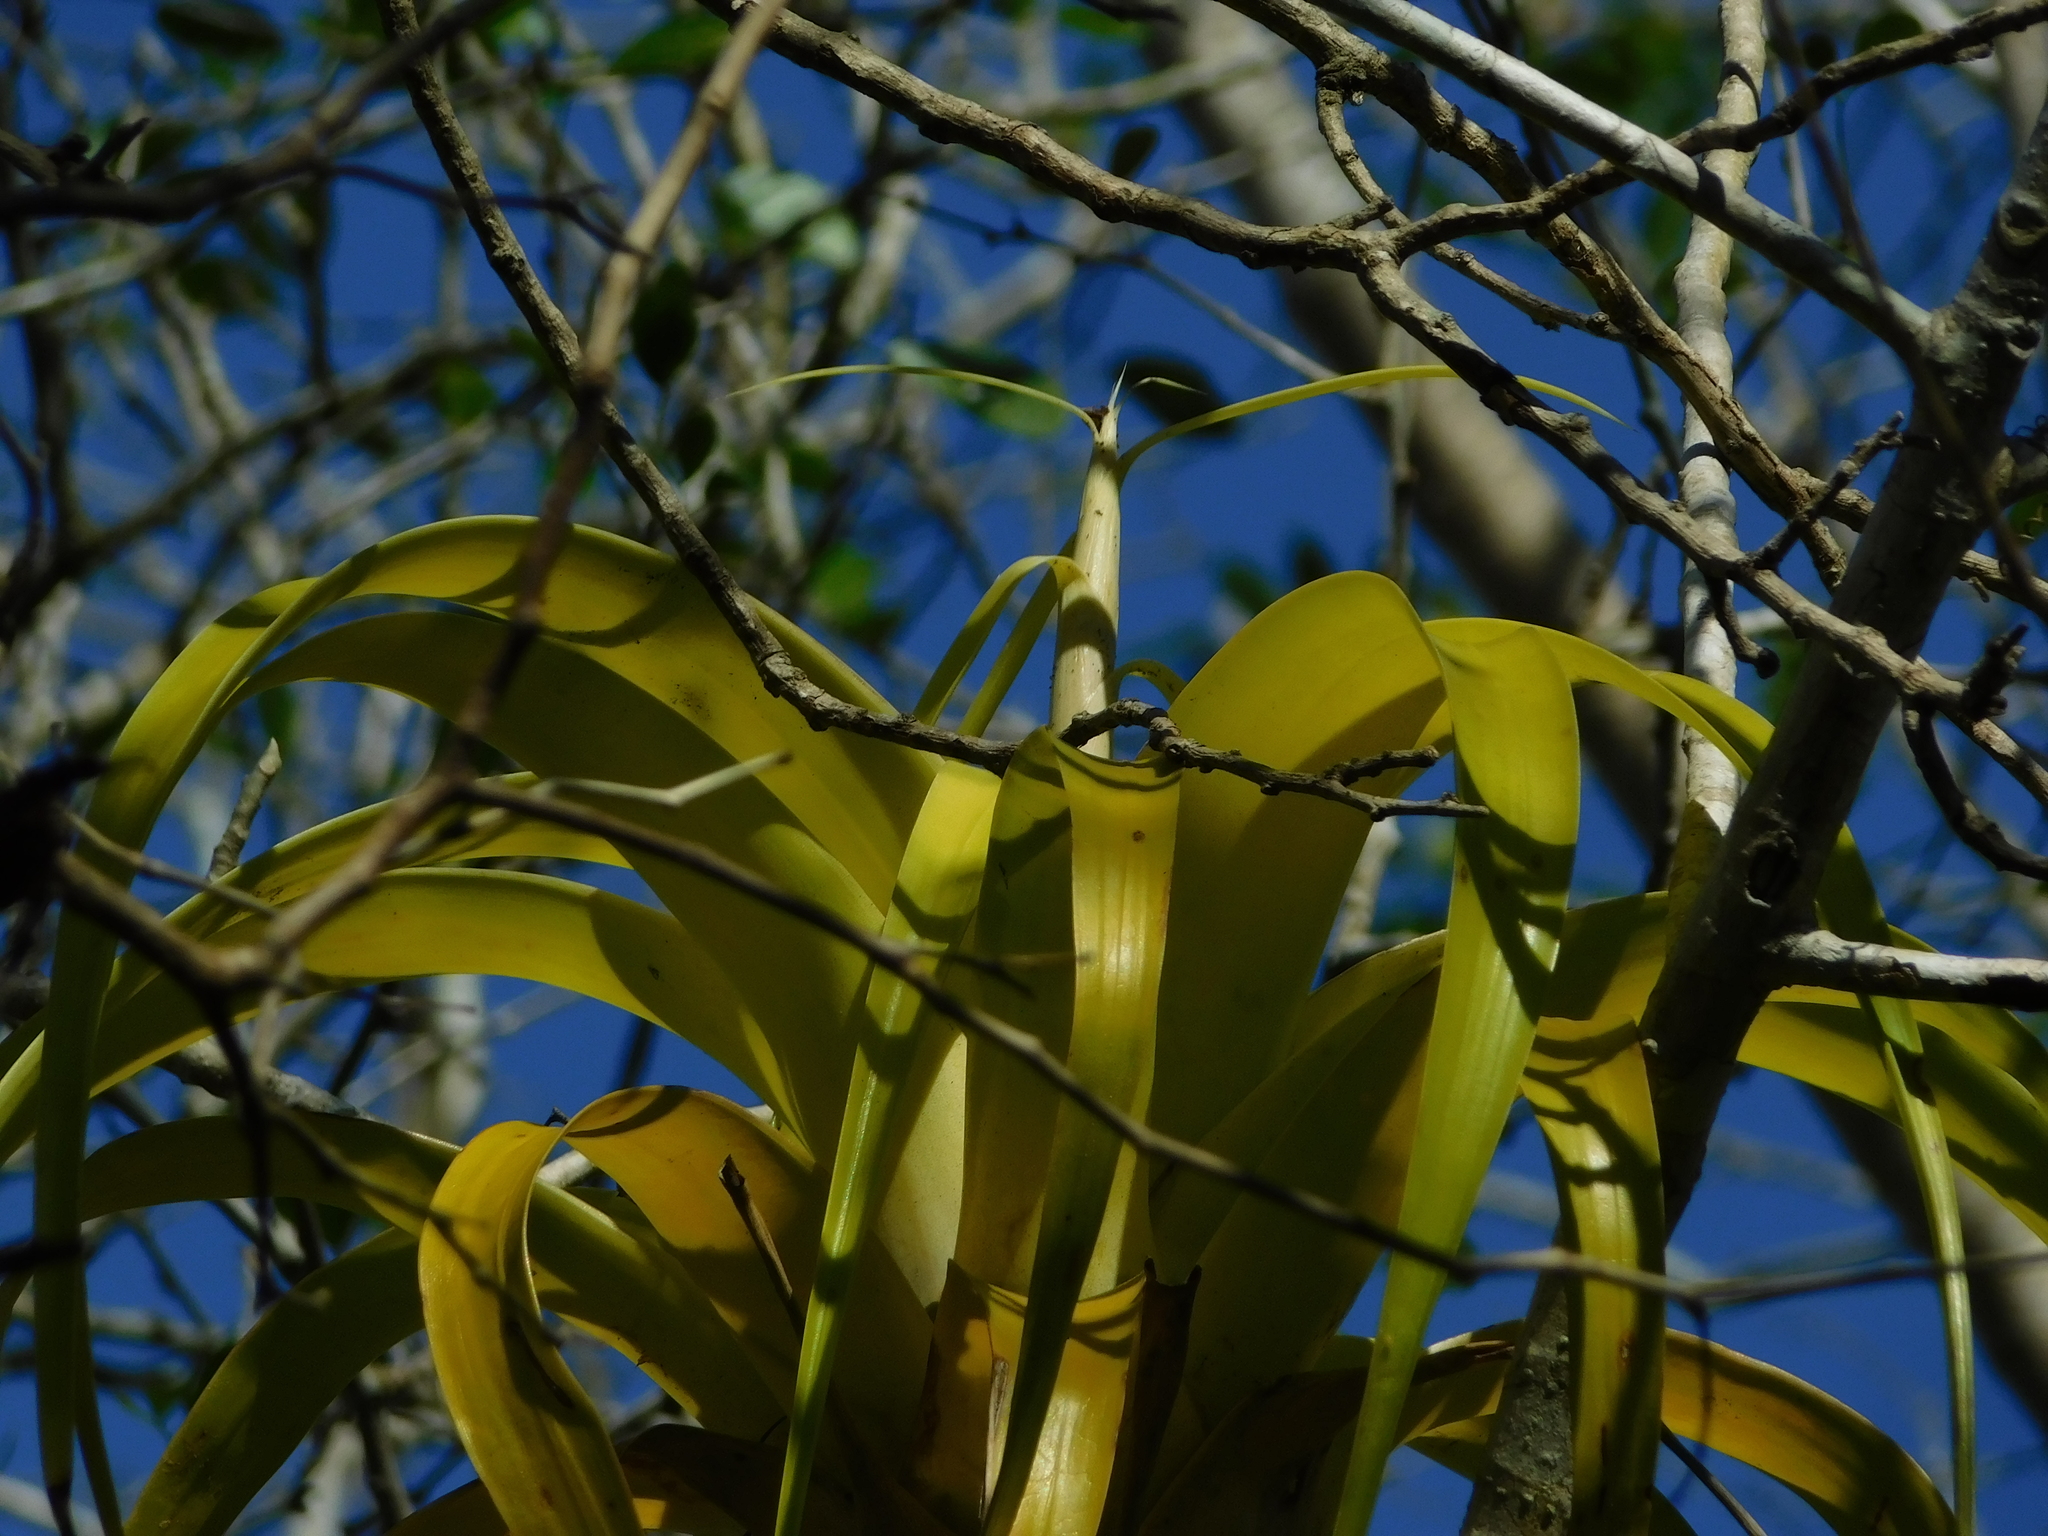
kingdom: Plantae
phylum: Tracheophyta
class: Liliopsida
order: Poales
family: Bromeliaceae
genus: Tillandsia
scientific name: Tillandsia elongata
